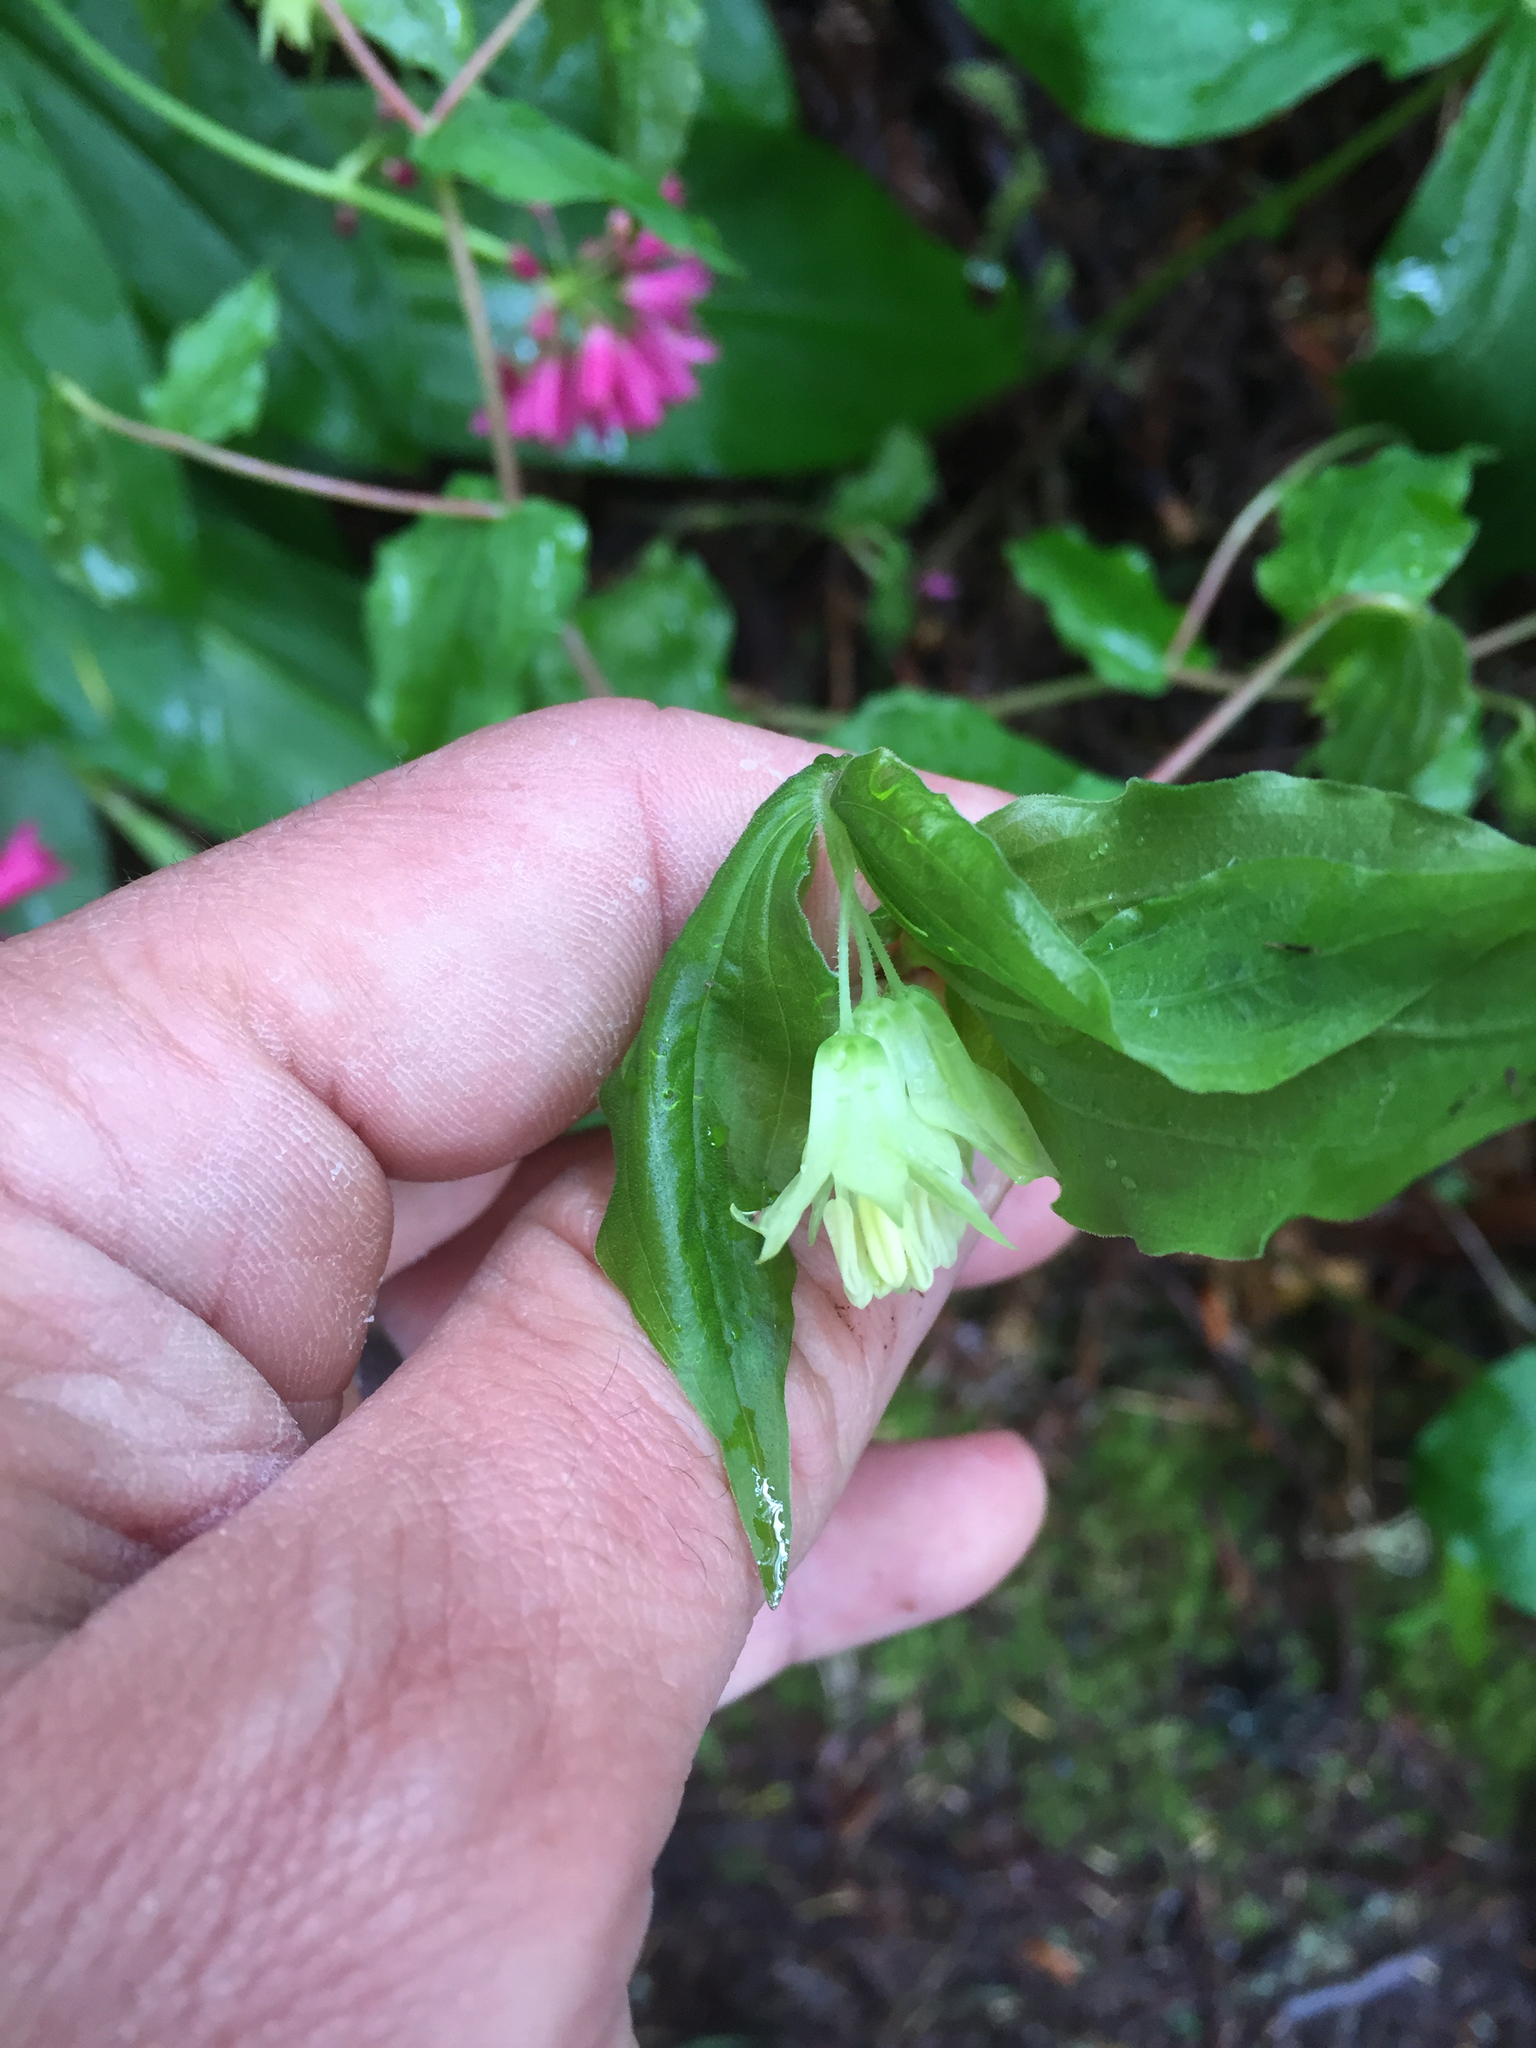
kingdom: Plantae
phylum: Tracheophyta
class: Liliopsida
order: Liliales
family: Liliaceae
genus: Prosartes
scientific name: Prosartes hookeri
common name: Fairy-bells
